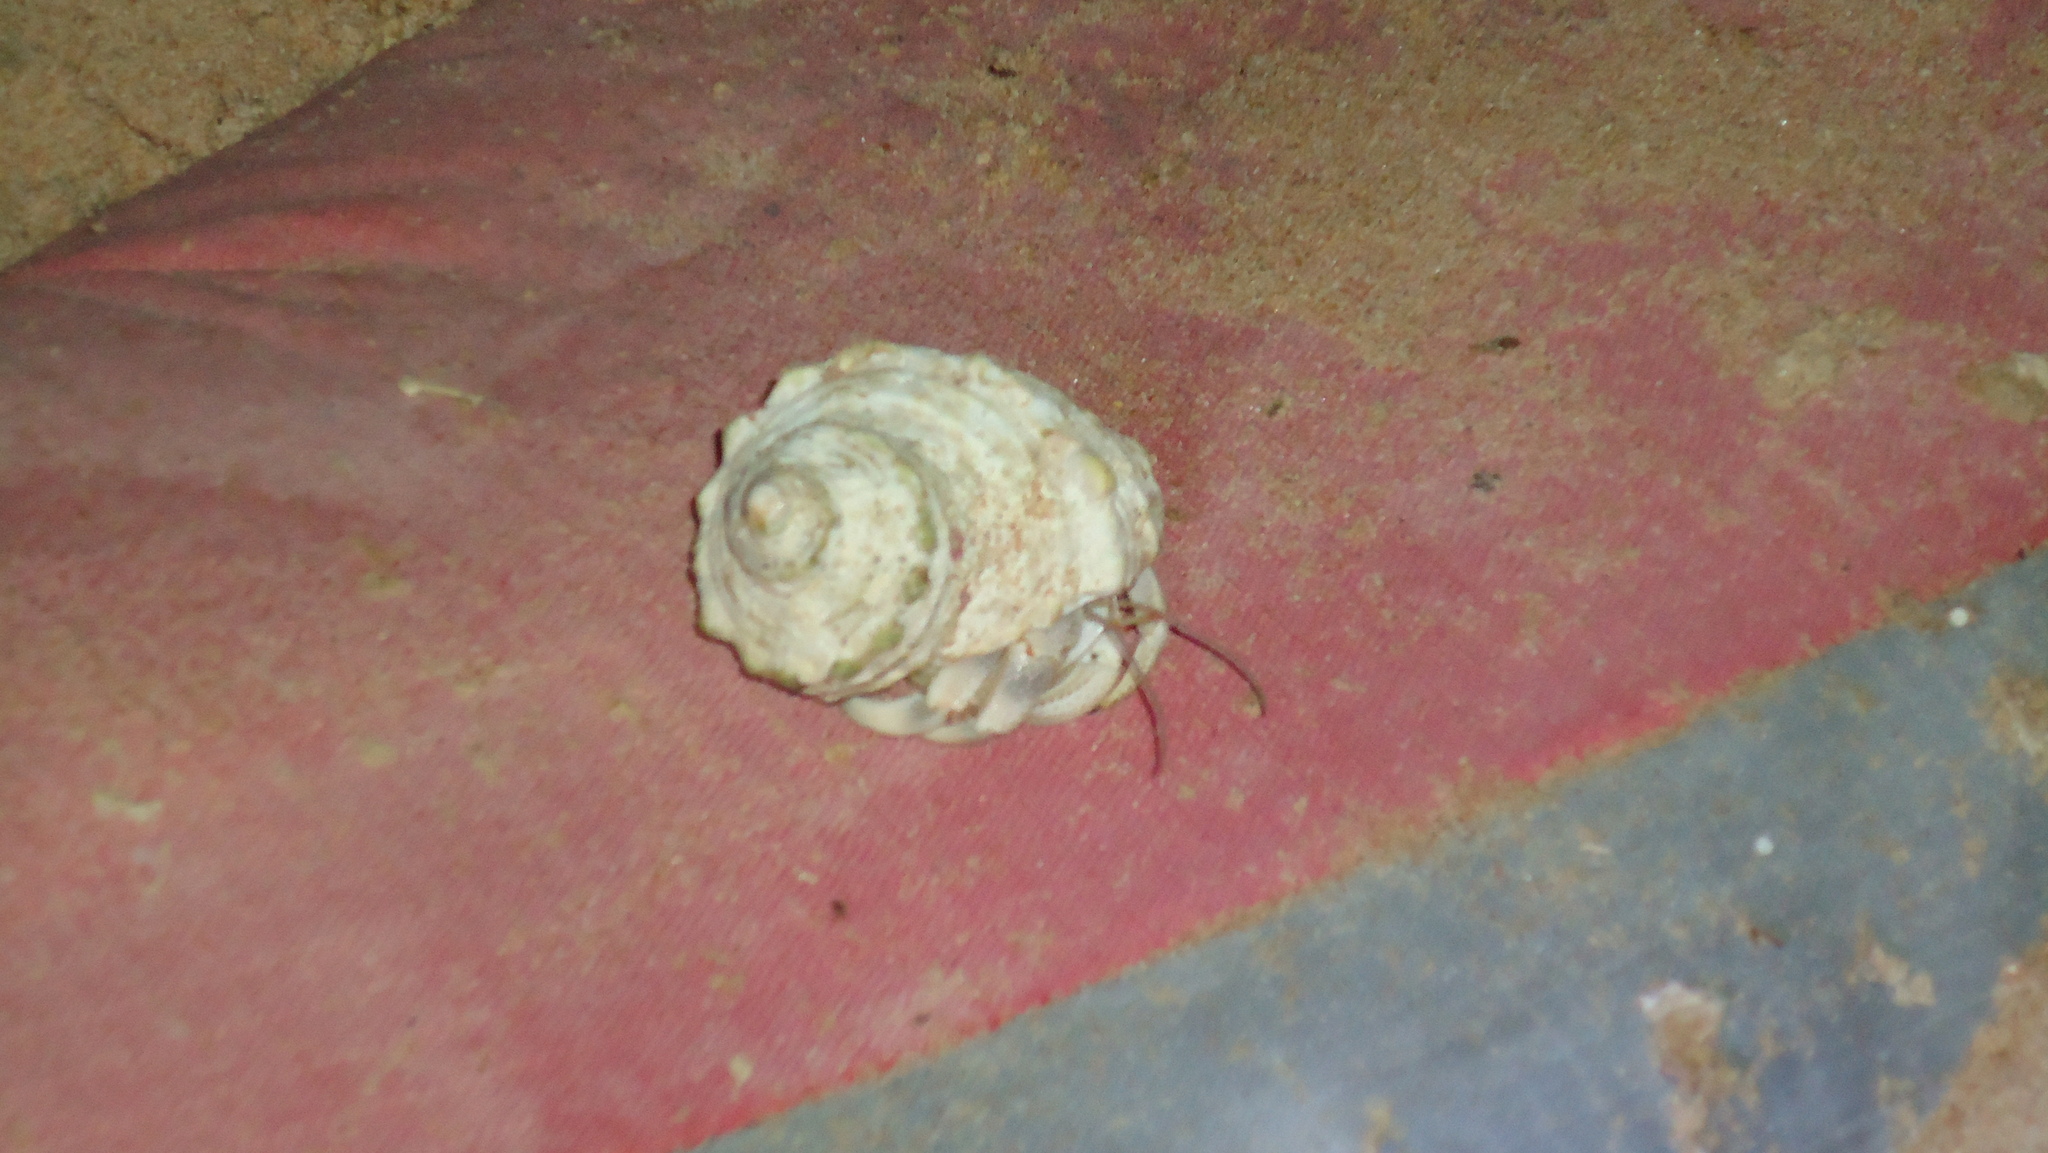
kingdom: Animalia
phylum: Arthropoda
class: Malacostraca
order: Decapoda
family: Coenobitidae
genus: Coenobita
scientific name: Coenobita scaevola
